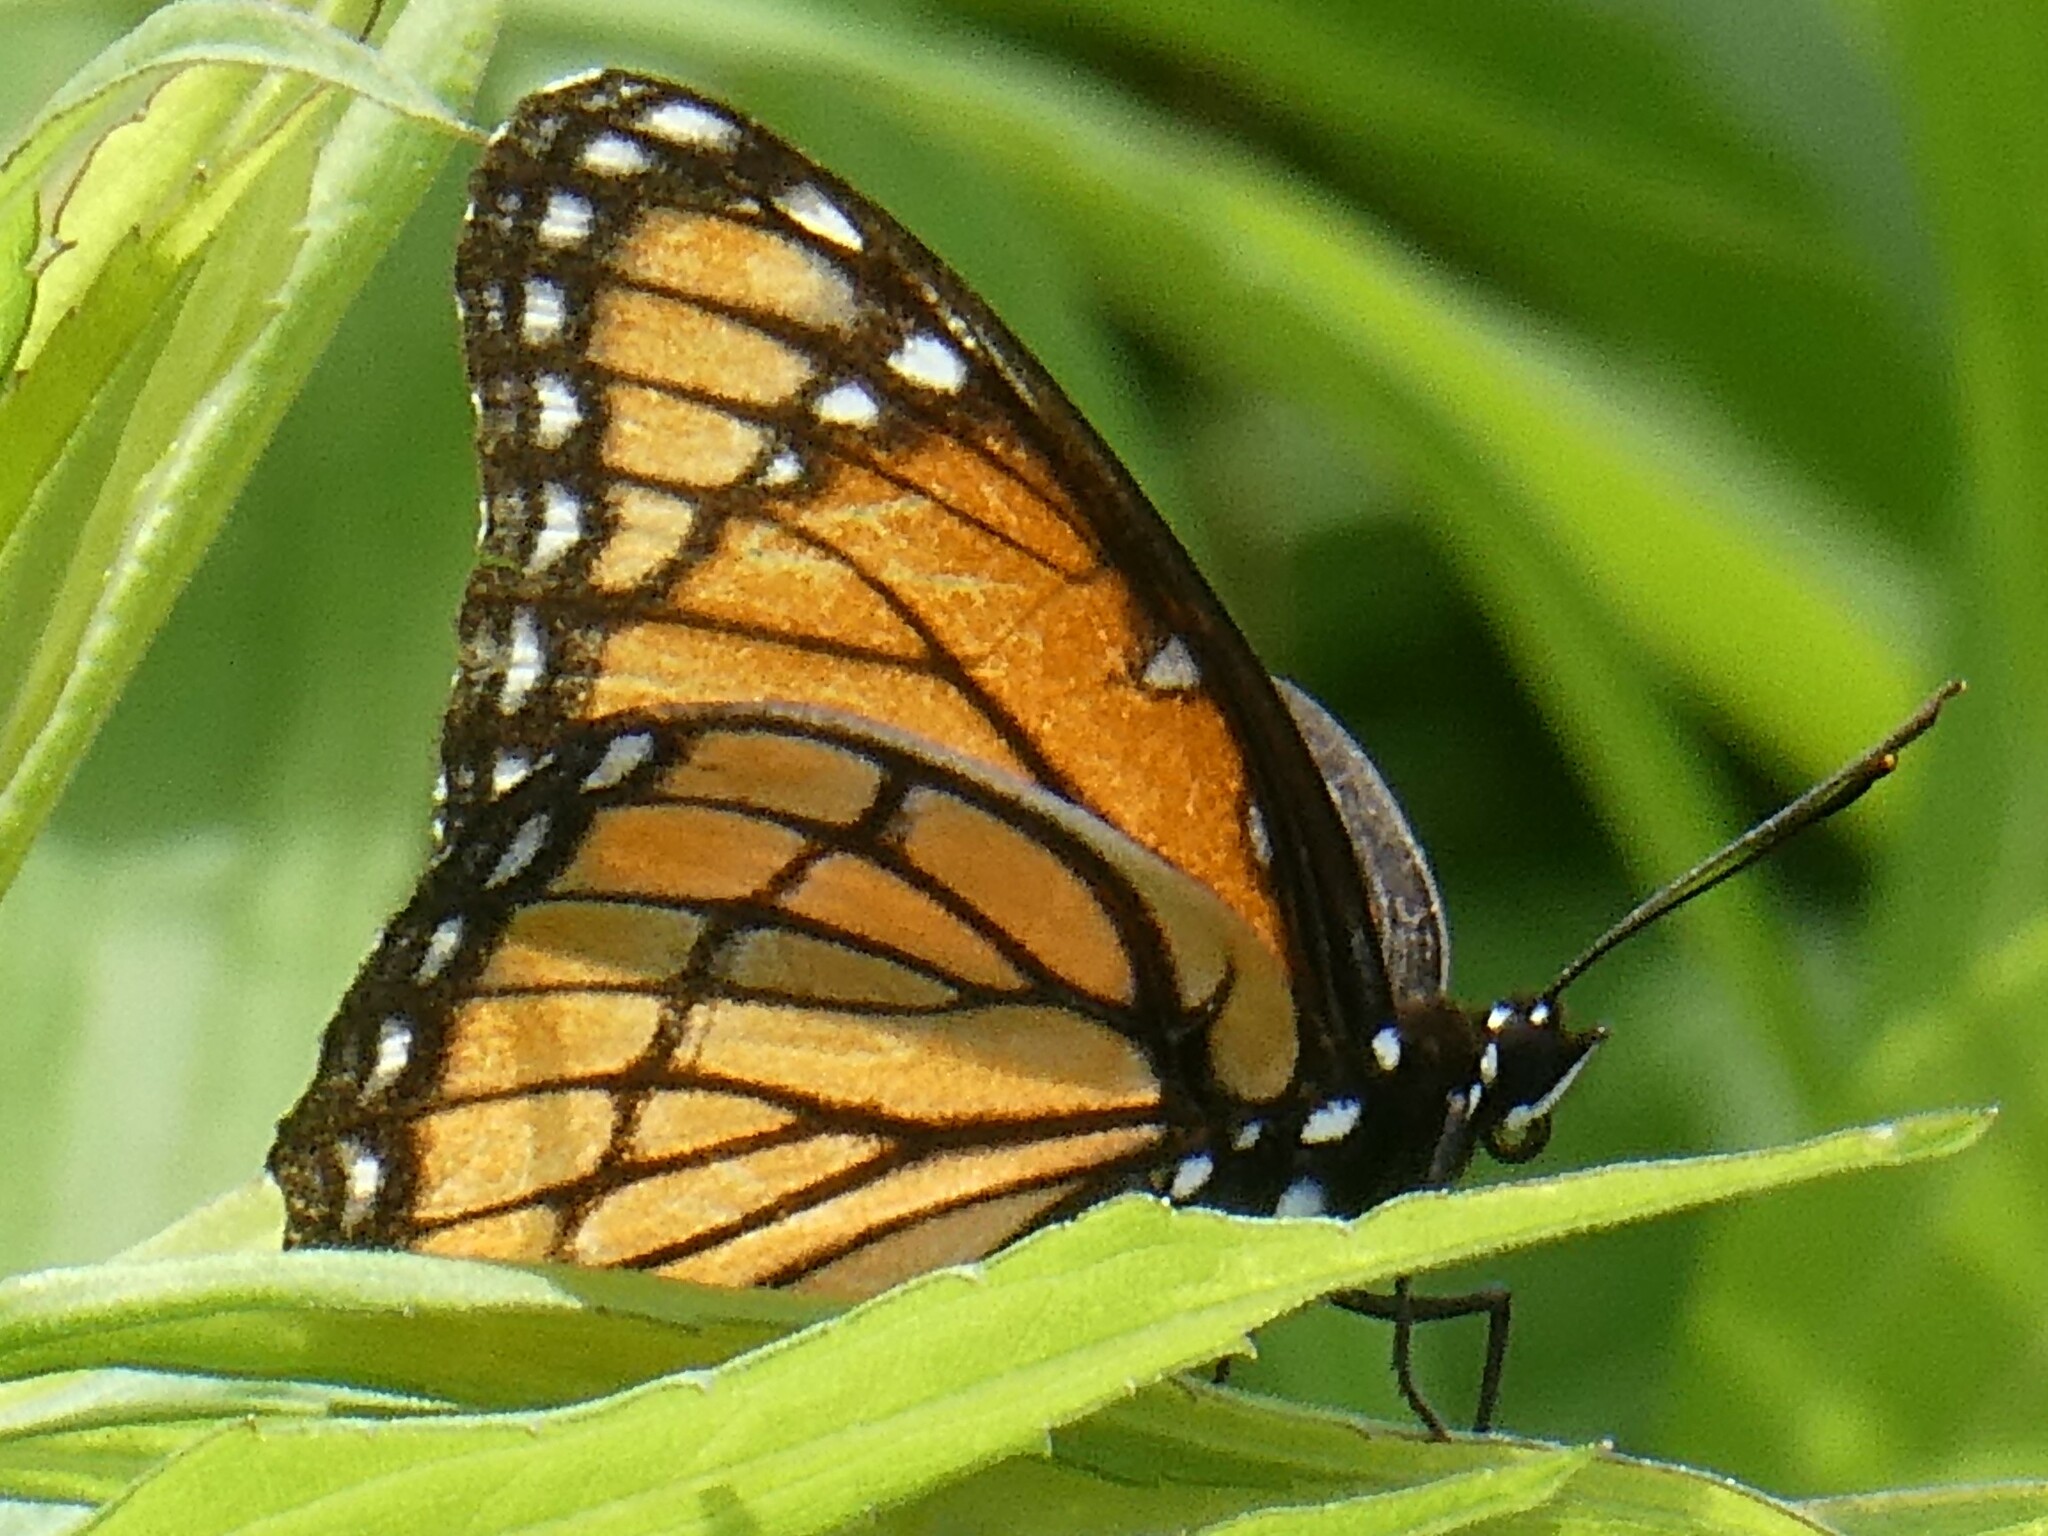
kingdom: Animalia
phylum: Arthropoda
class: Insecta
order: Lepidoptera
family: Nymphalidae
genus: Limenitis
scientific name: Limenitis archippus
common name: Viceroy
